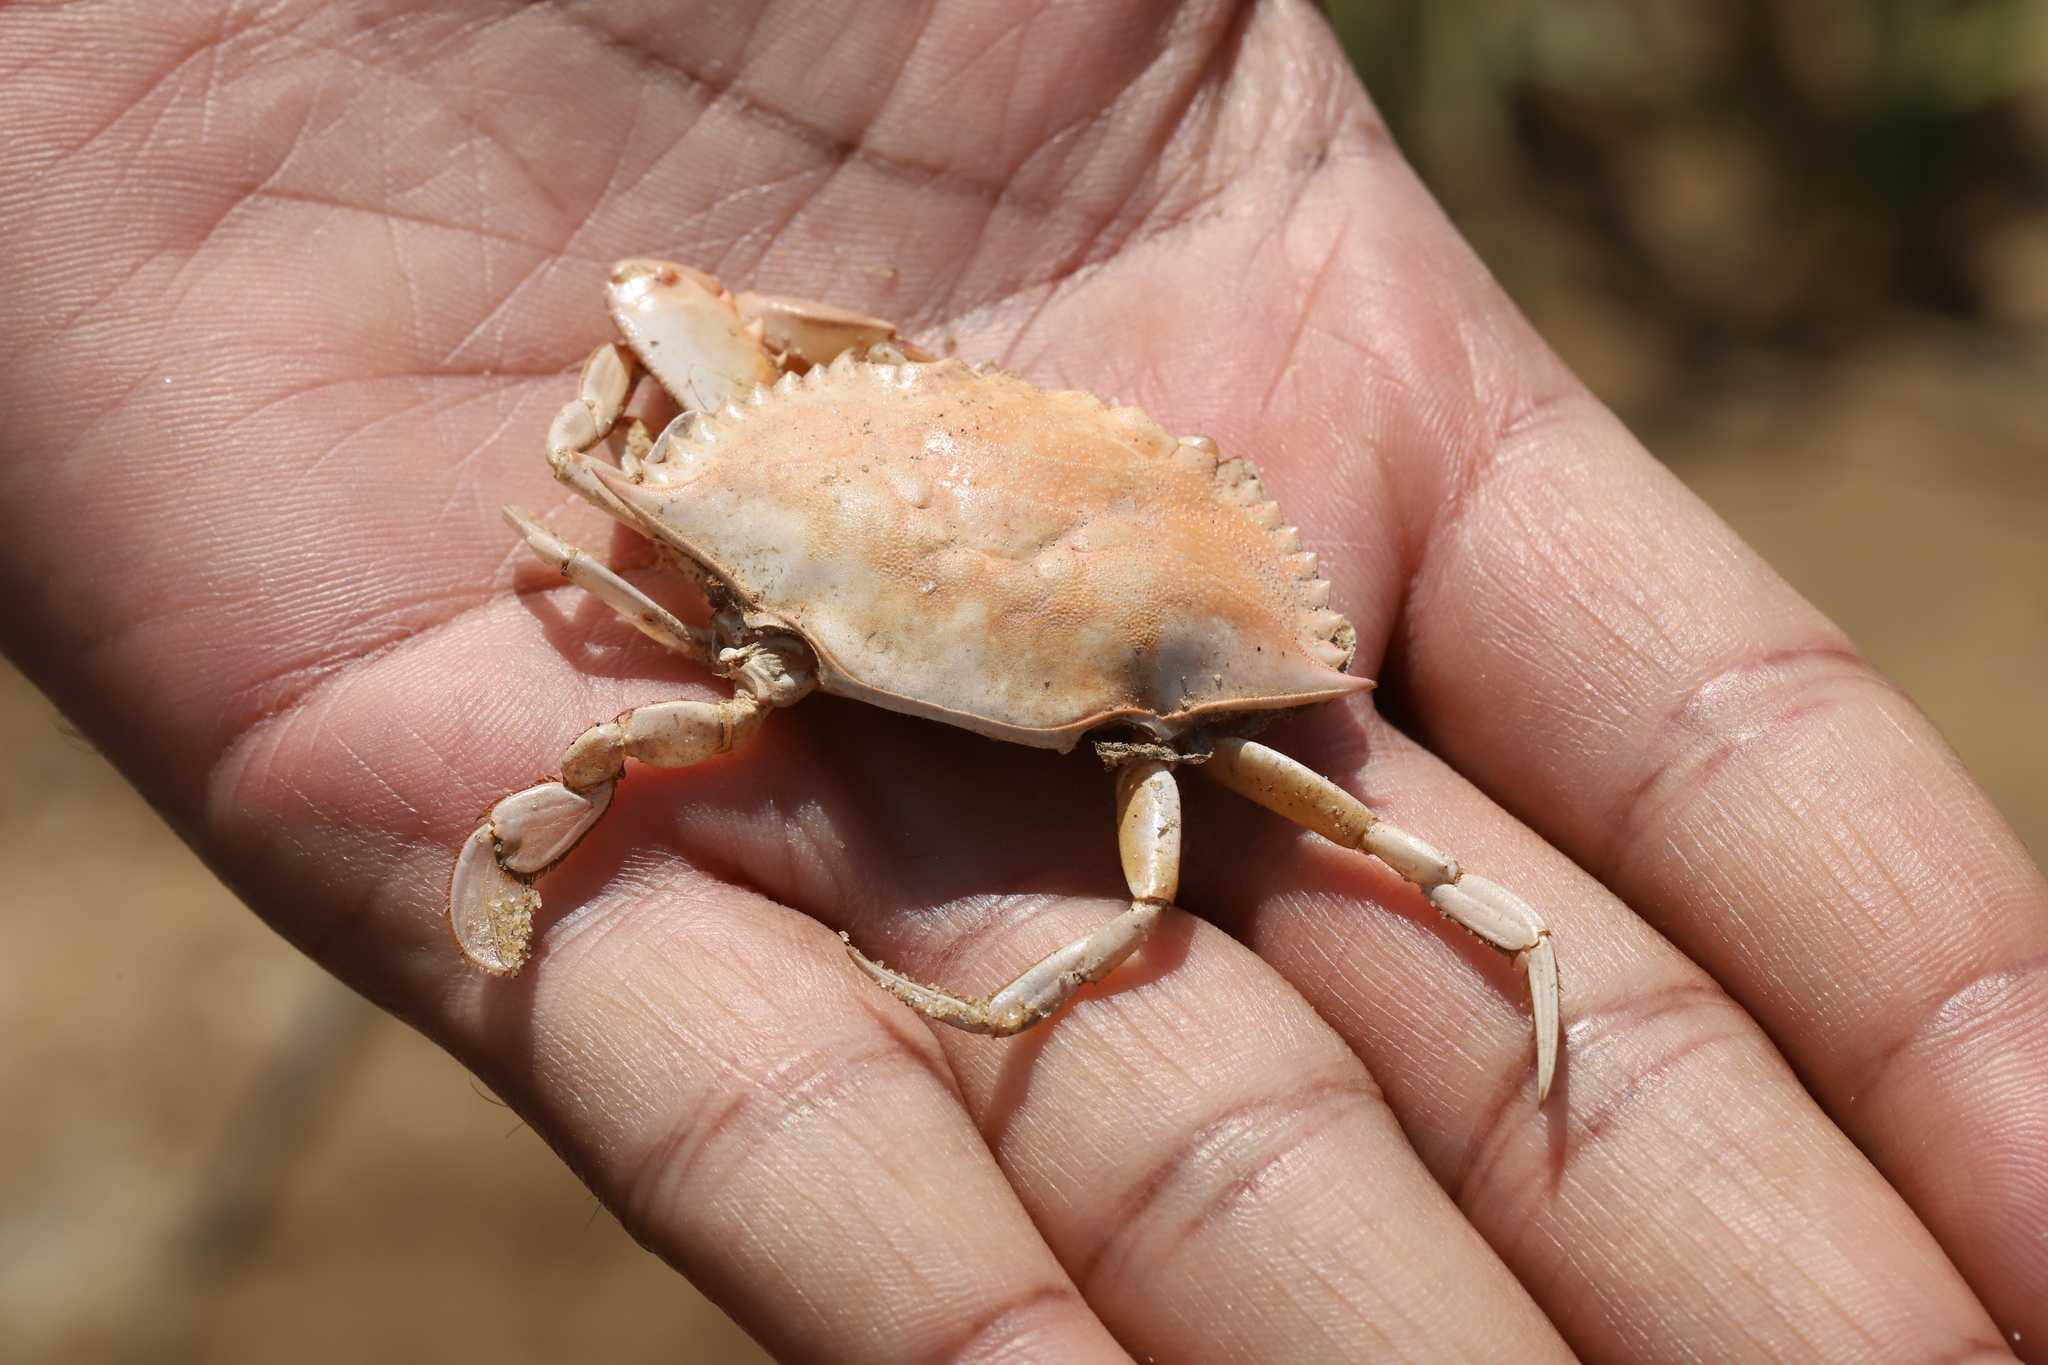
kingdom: Animalia
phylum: Arthropoda
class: Malacostraca
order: Decapoda
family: Portunidae
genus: Callinectes
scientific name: Callinectes sapidus
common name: Blue crab
